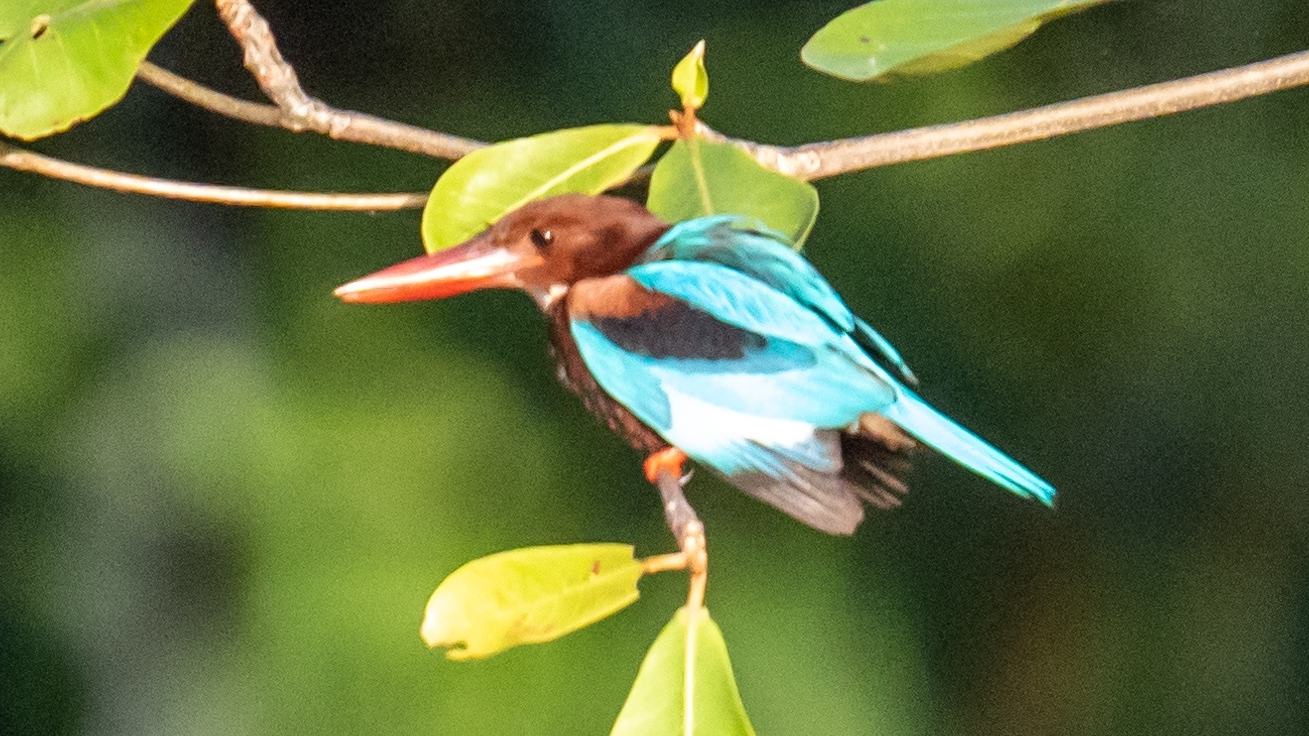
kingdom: Animalia
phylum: Chordata
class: Aves
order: Coraciiformes
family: Alcedinidae
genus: Halcyon
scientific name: Halcyon smyrnensis
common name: White-throated kingfisher
